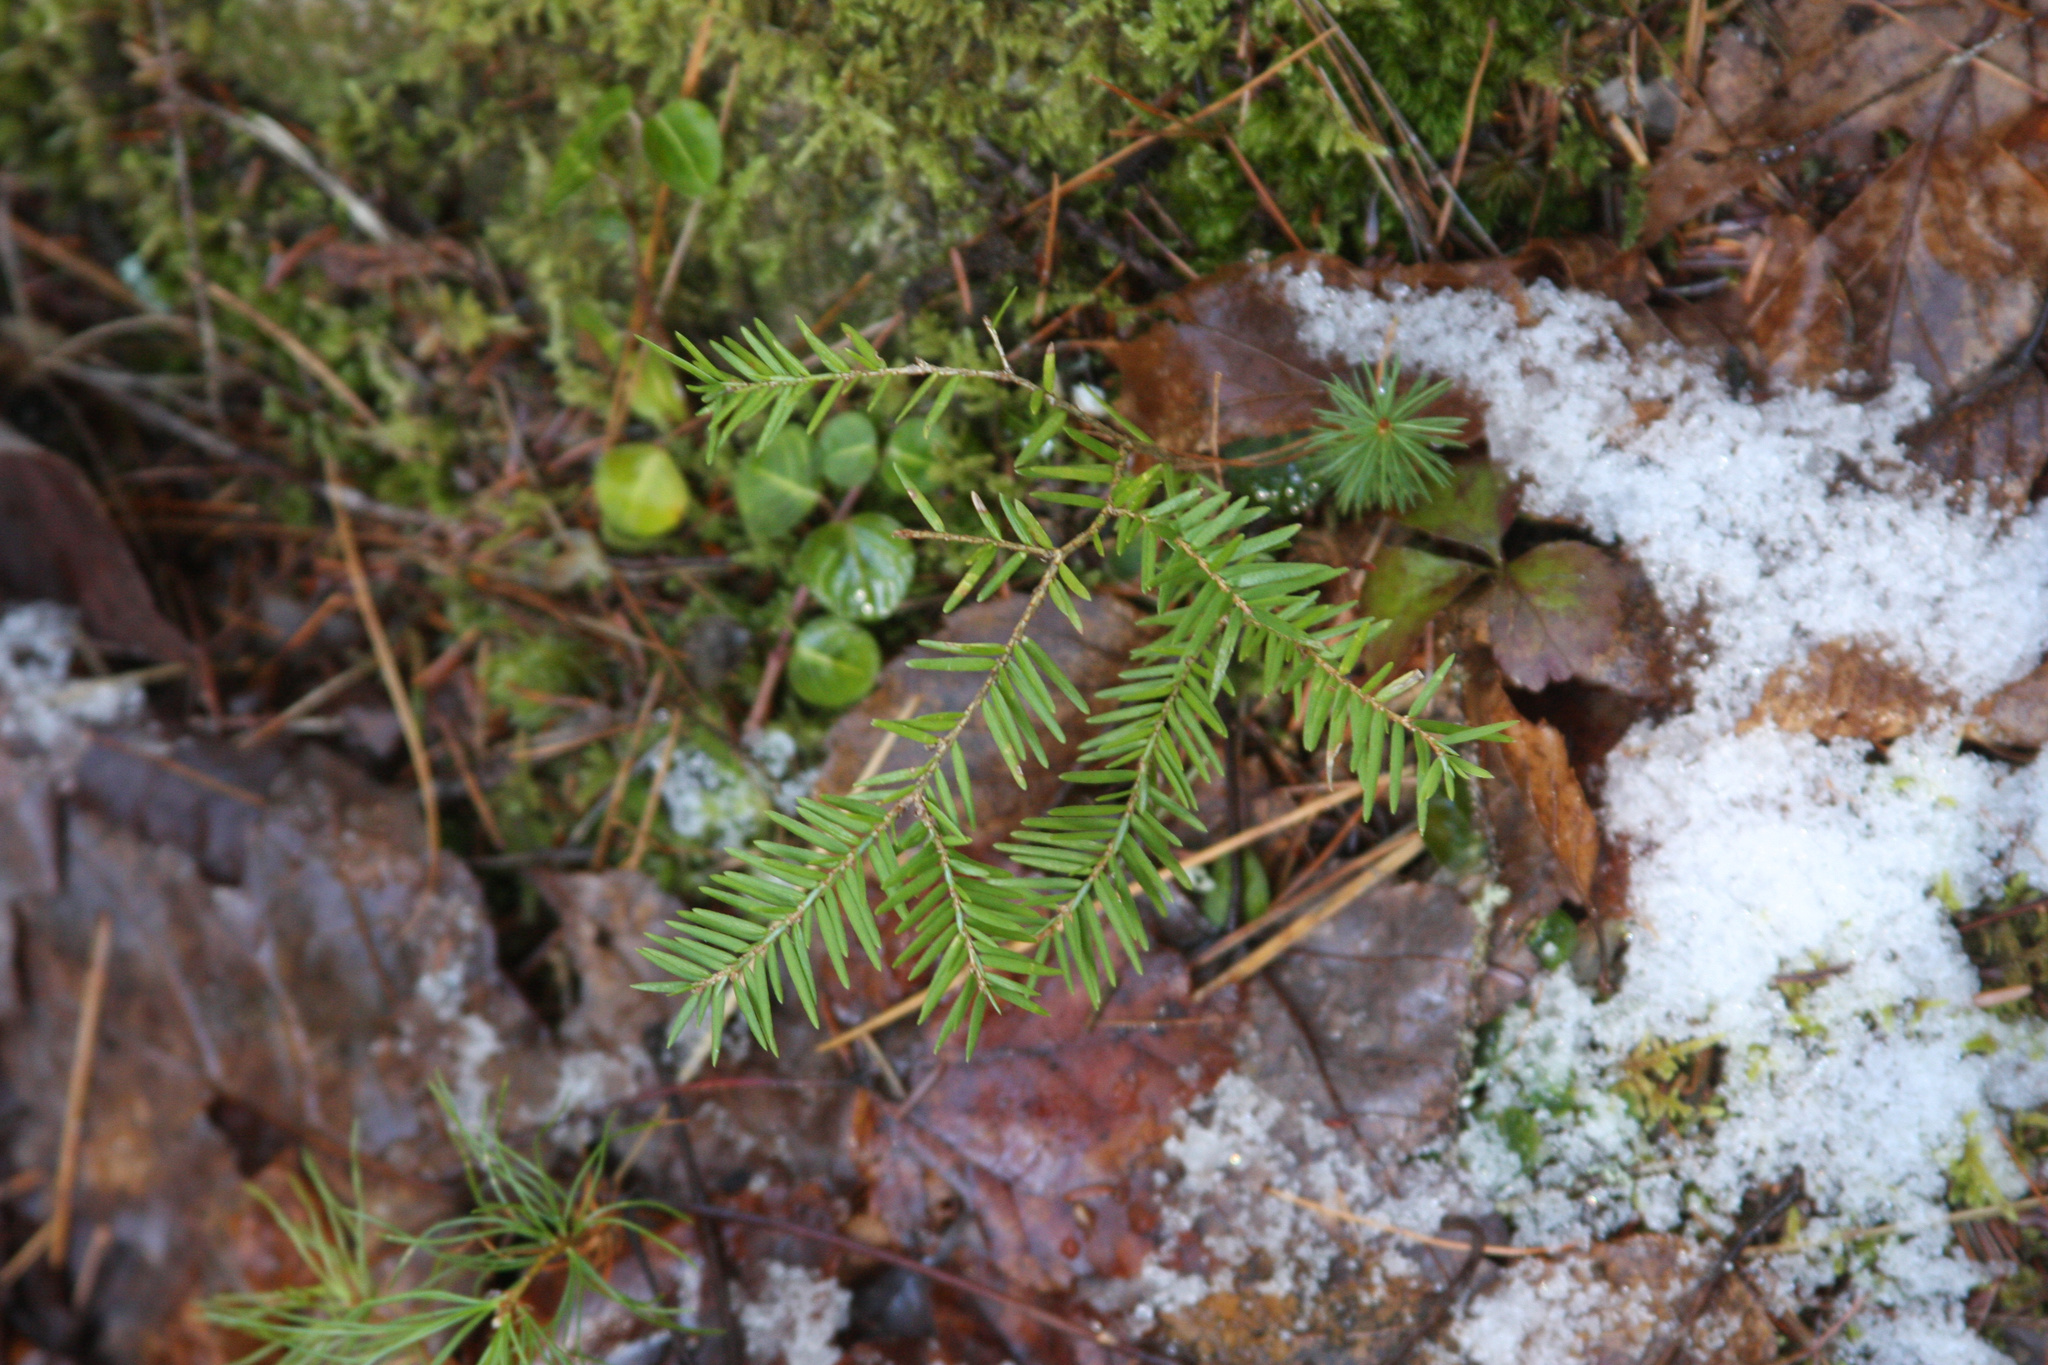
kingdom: Plantae
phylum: Tracheophyta
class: Pinopsida
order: Pinales
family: Pinaceae
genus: Tsuga
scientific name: Tsuga canadensis
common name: Eastern hemlock
